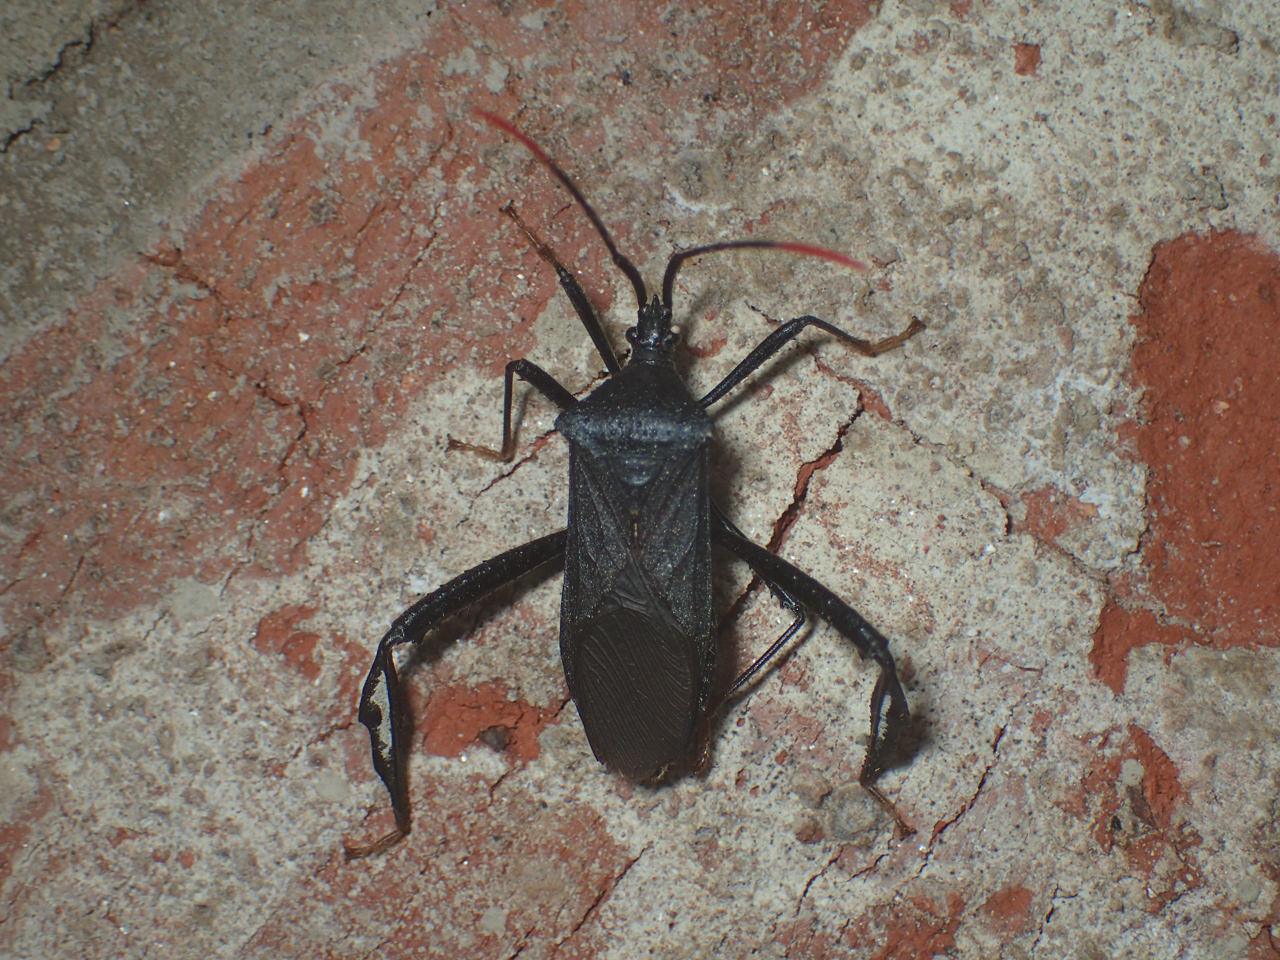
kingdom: Animalia
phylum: Arthropoda
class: Insecta
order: Hemiptera
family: Coreidae
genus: Acanthocephala
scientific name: Acanthocephala terminalis
